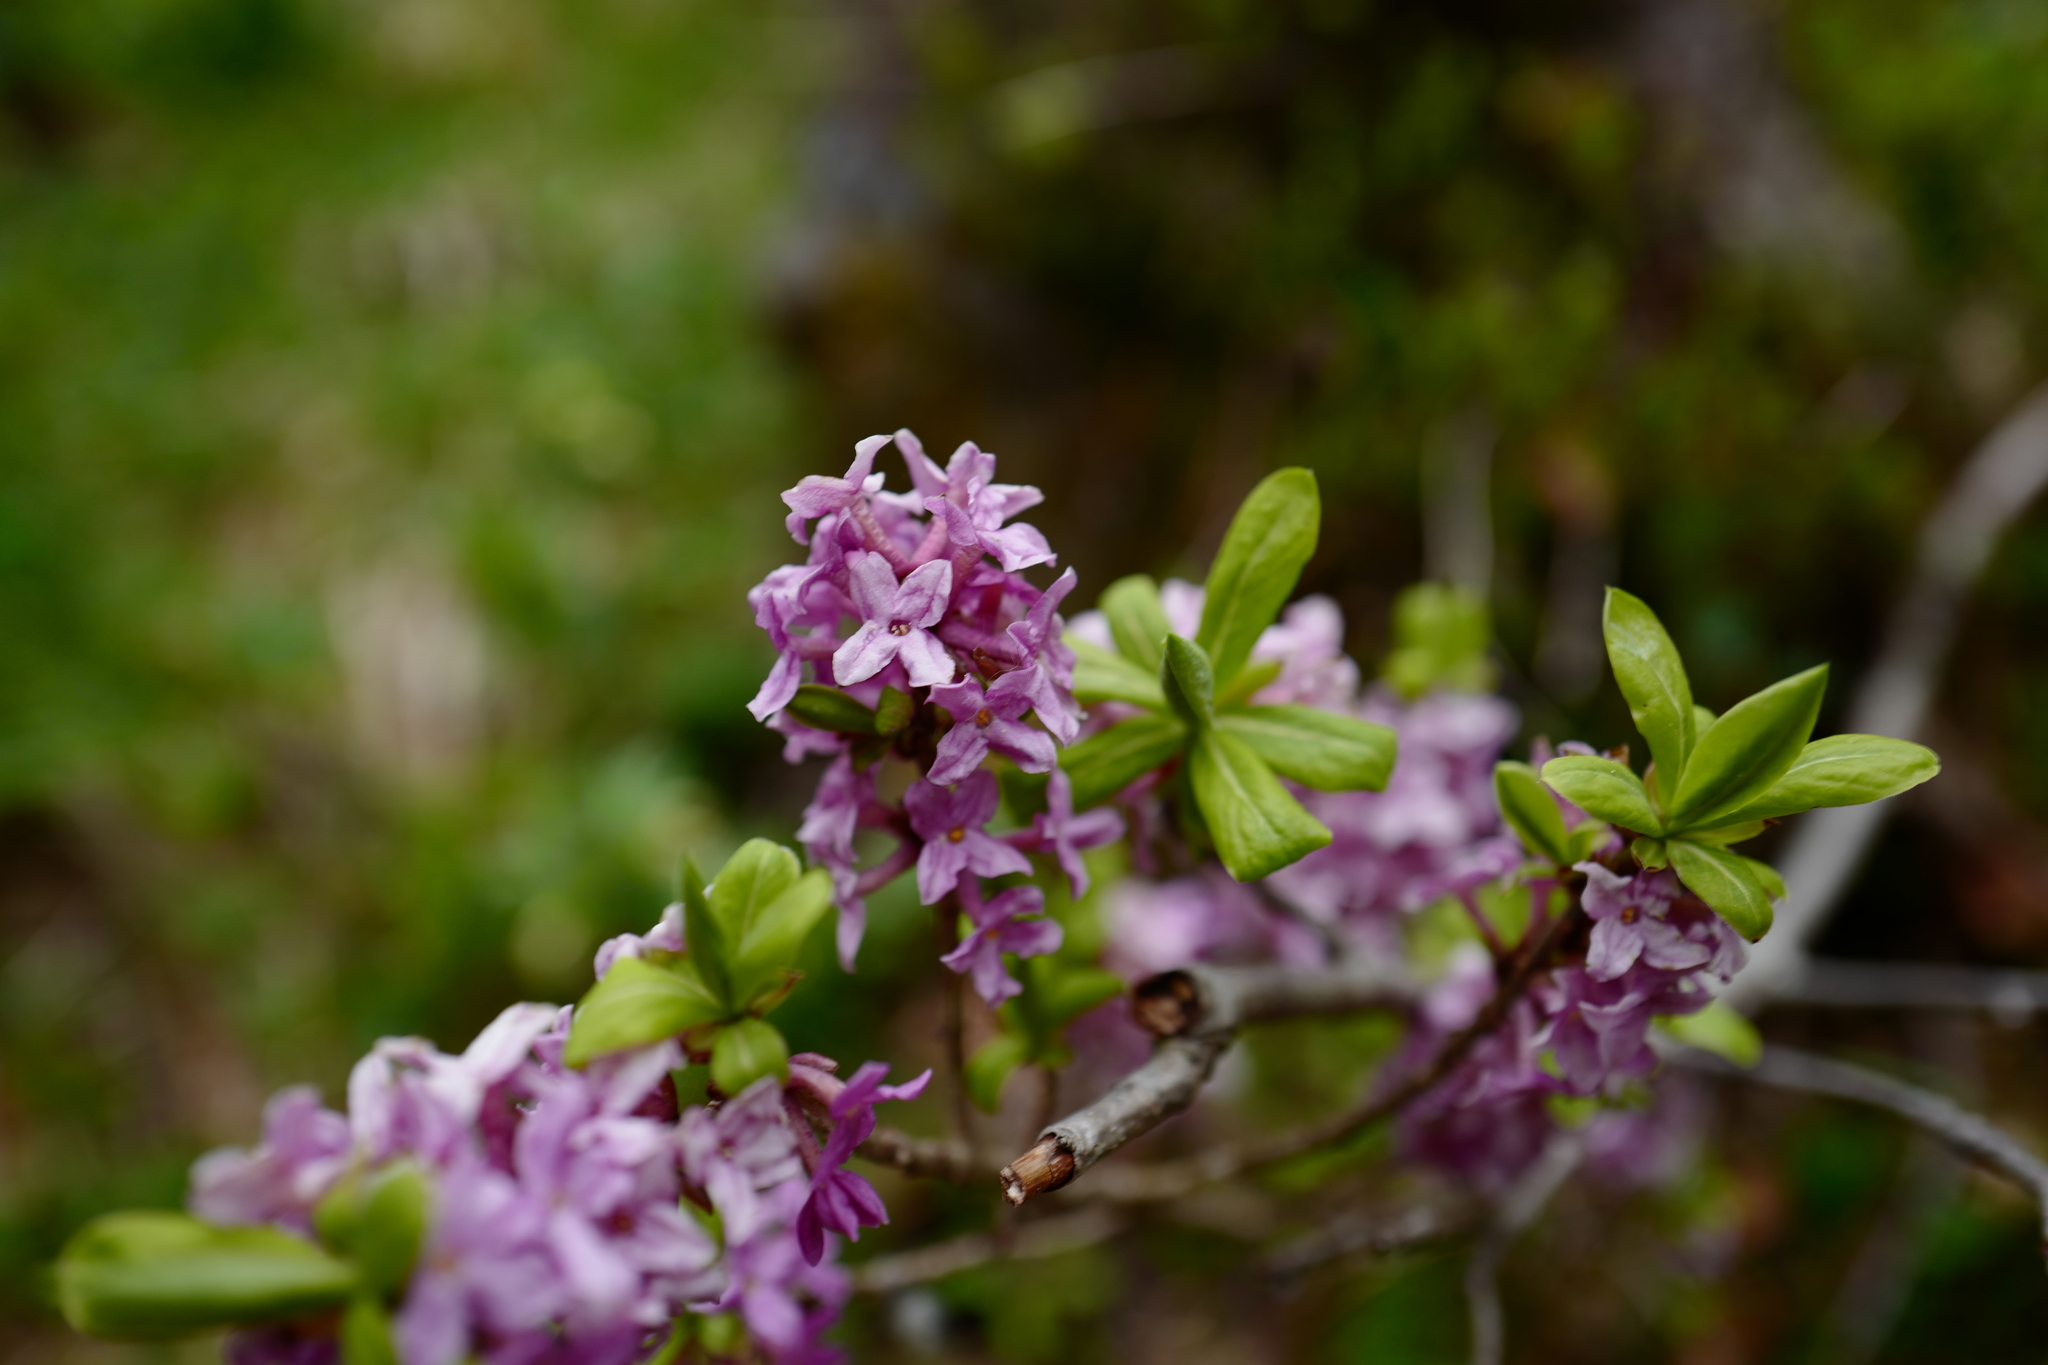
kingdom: Plantae
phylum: Tracheophyta
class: Magnoliopsida
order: Malvales
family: Thymelaeaceae
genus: Daphne
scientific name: Daphne mezereum
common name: Mezereon
